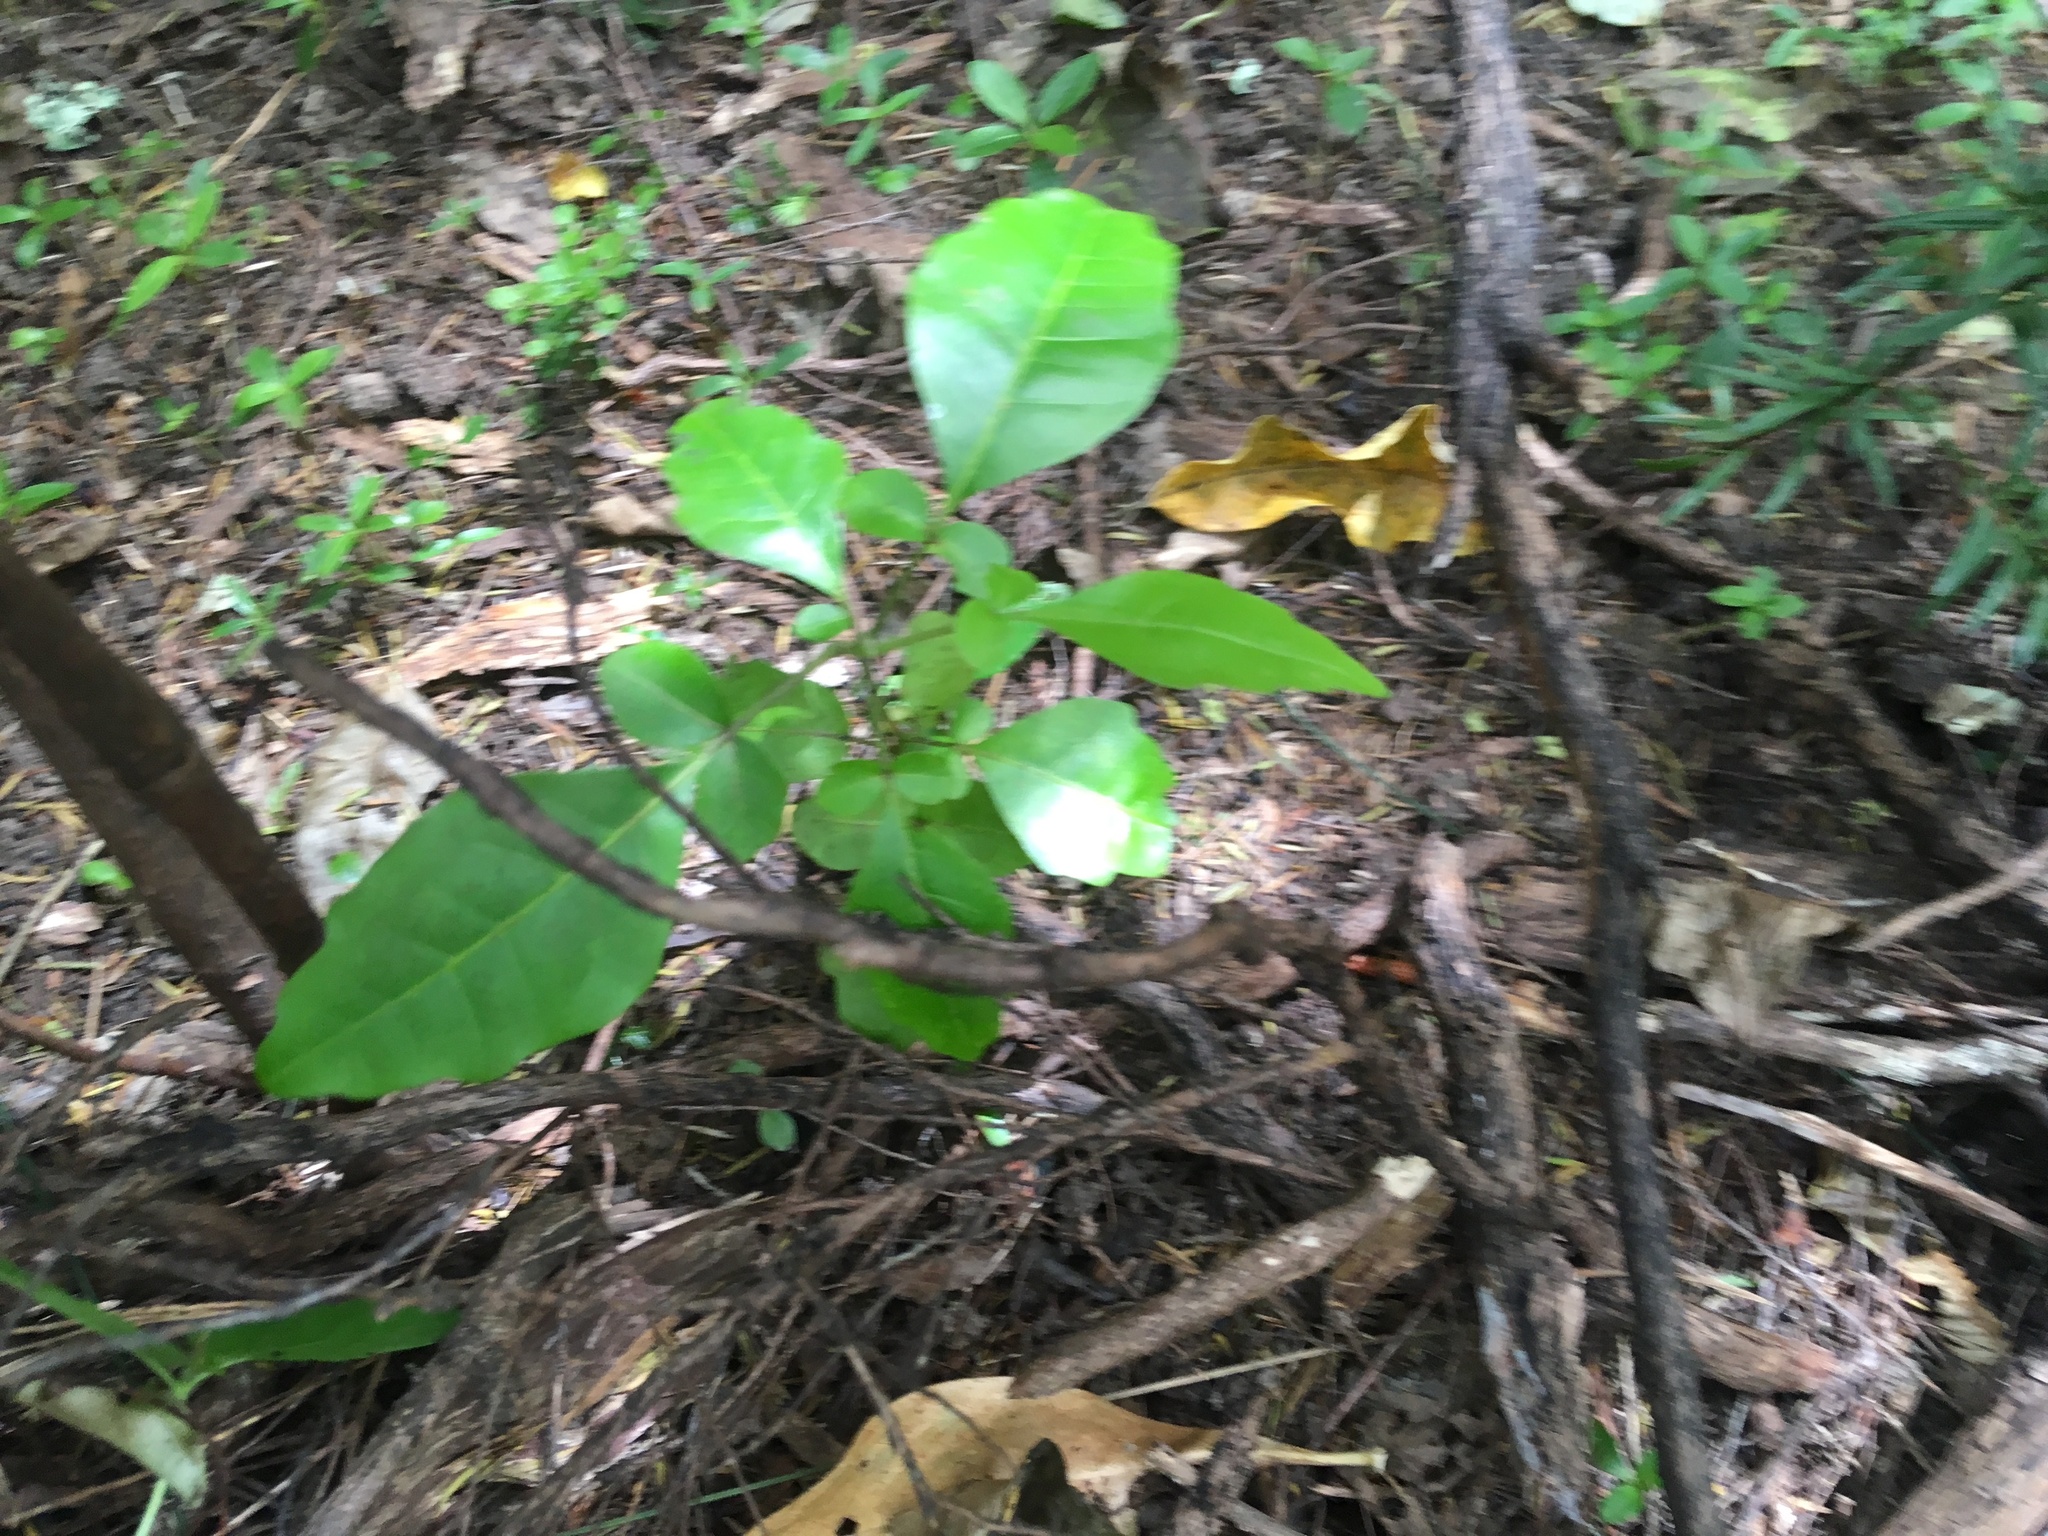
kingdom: Plantae
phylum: Tracheophyta
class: Magnoliopsida
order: Sapindales
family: Meliaceae
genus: Didymocheton
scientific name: Didymocheton spectabilis
